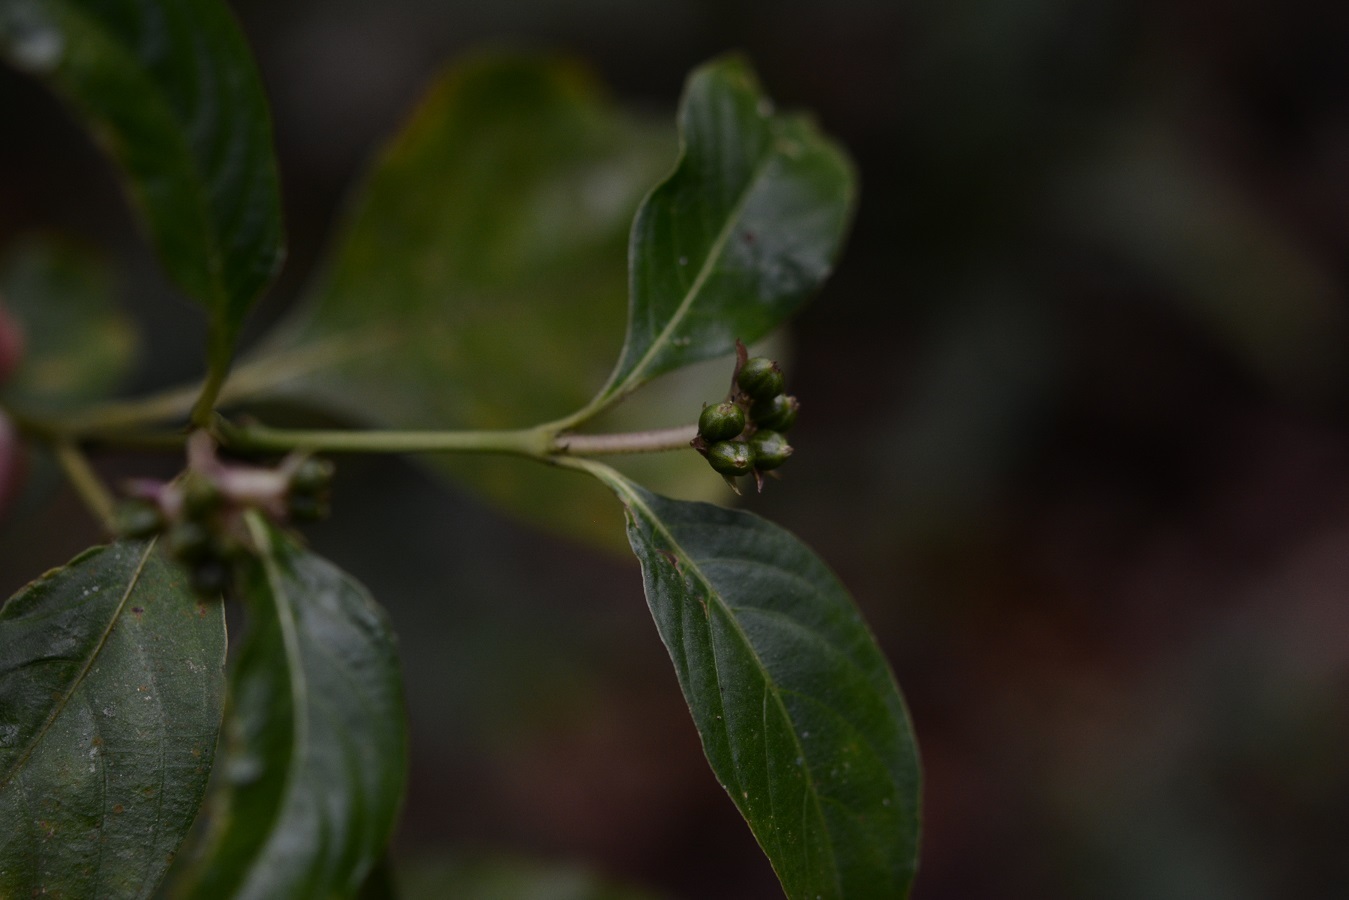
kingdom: Plantae
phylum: Tracheophyta
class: Magnoliopsida
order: Gentianales
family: Rubiaceae
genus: Palicourea
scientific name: Palicourea winkleri
